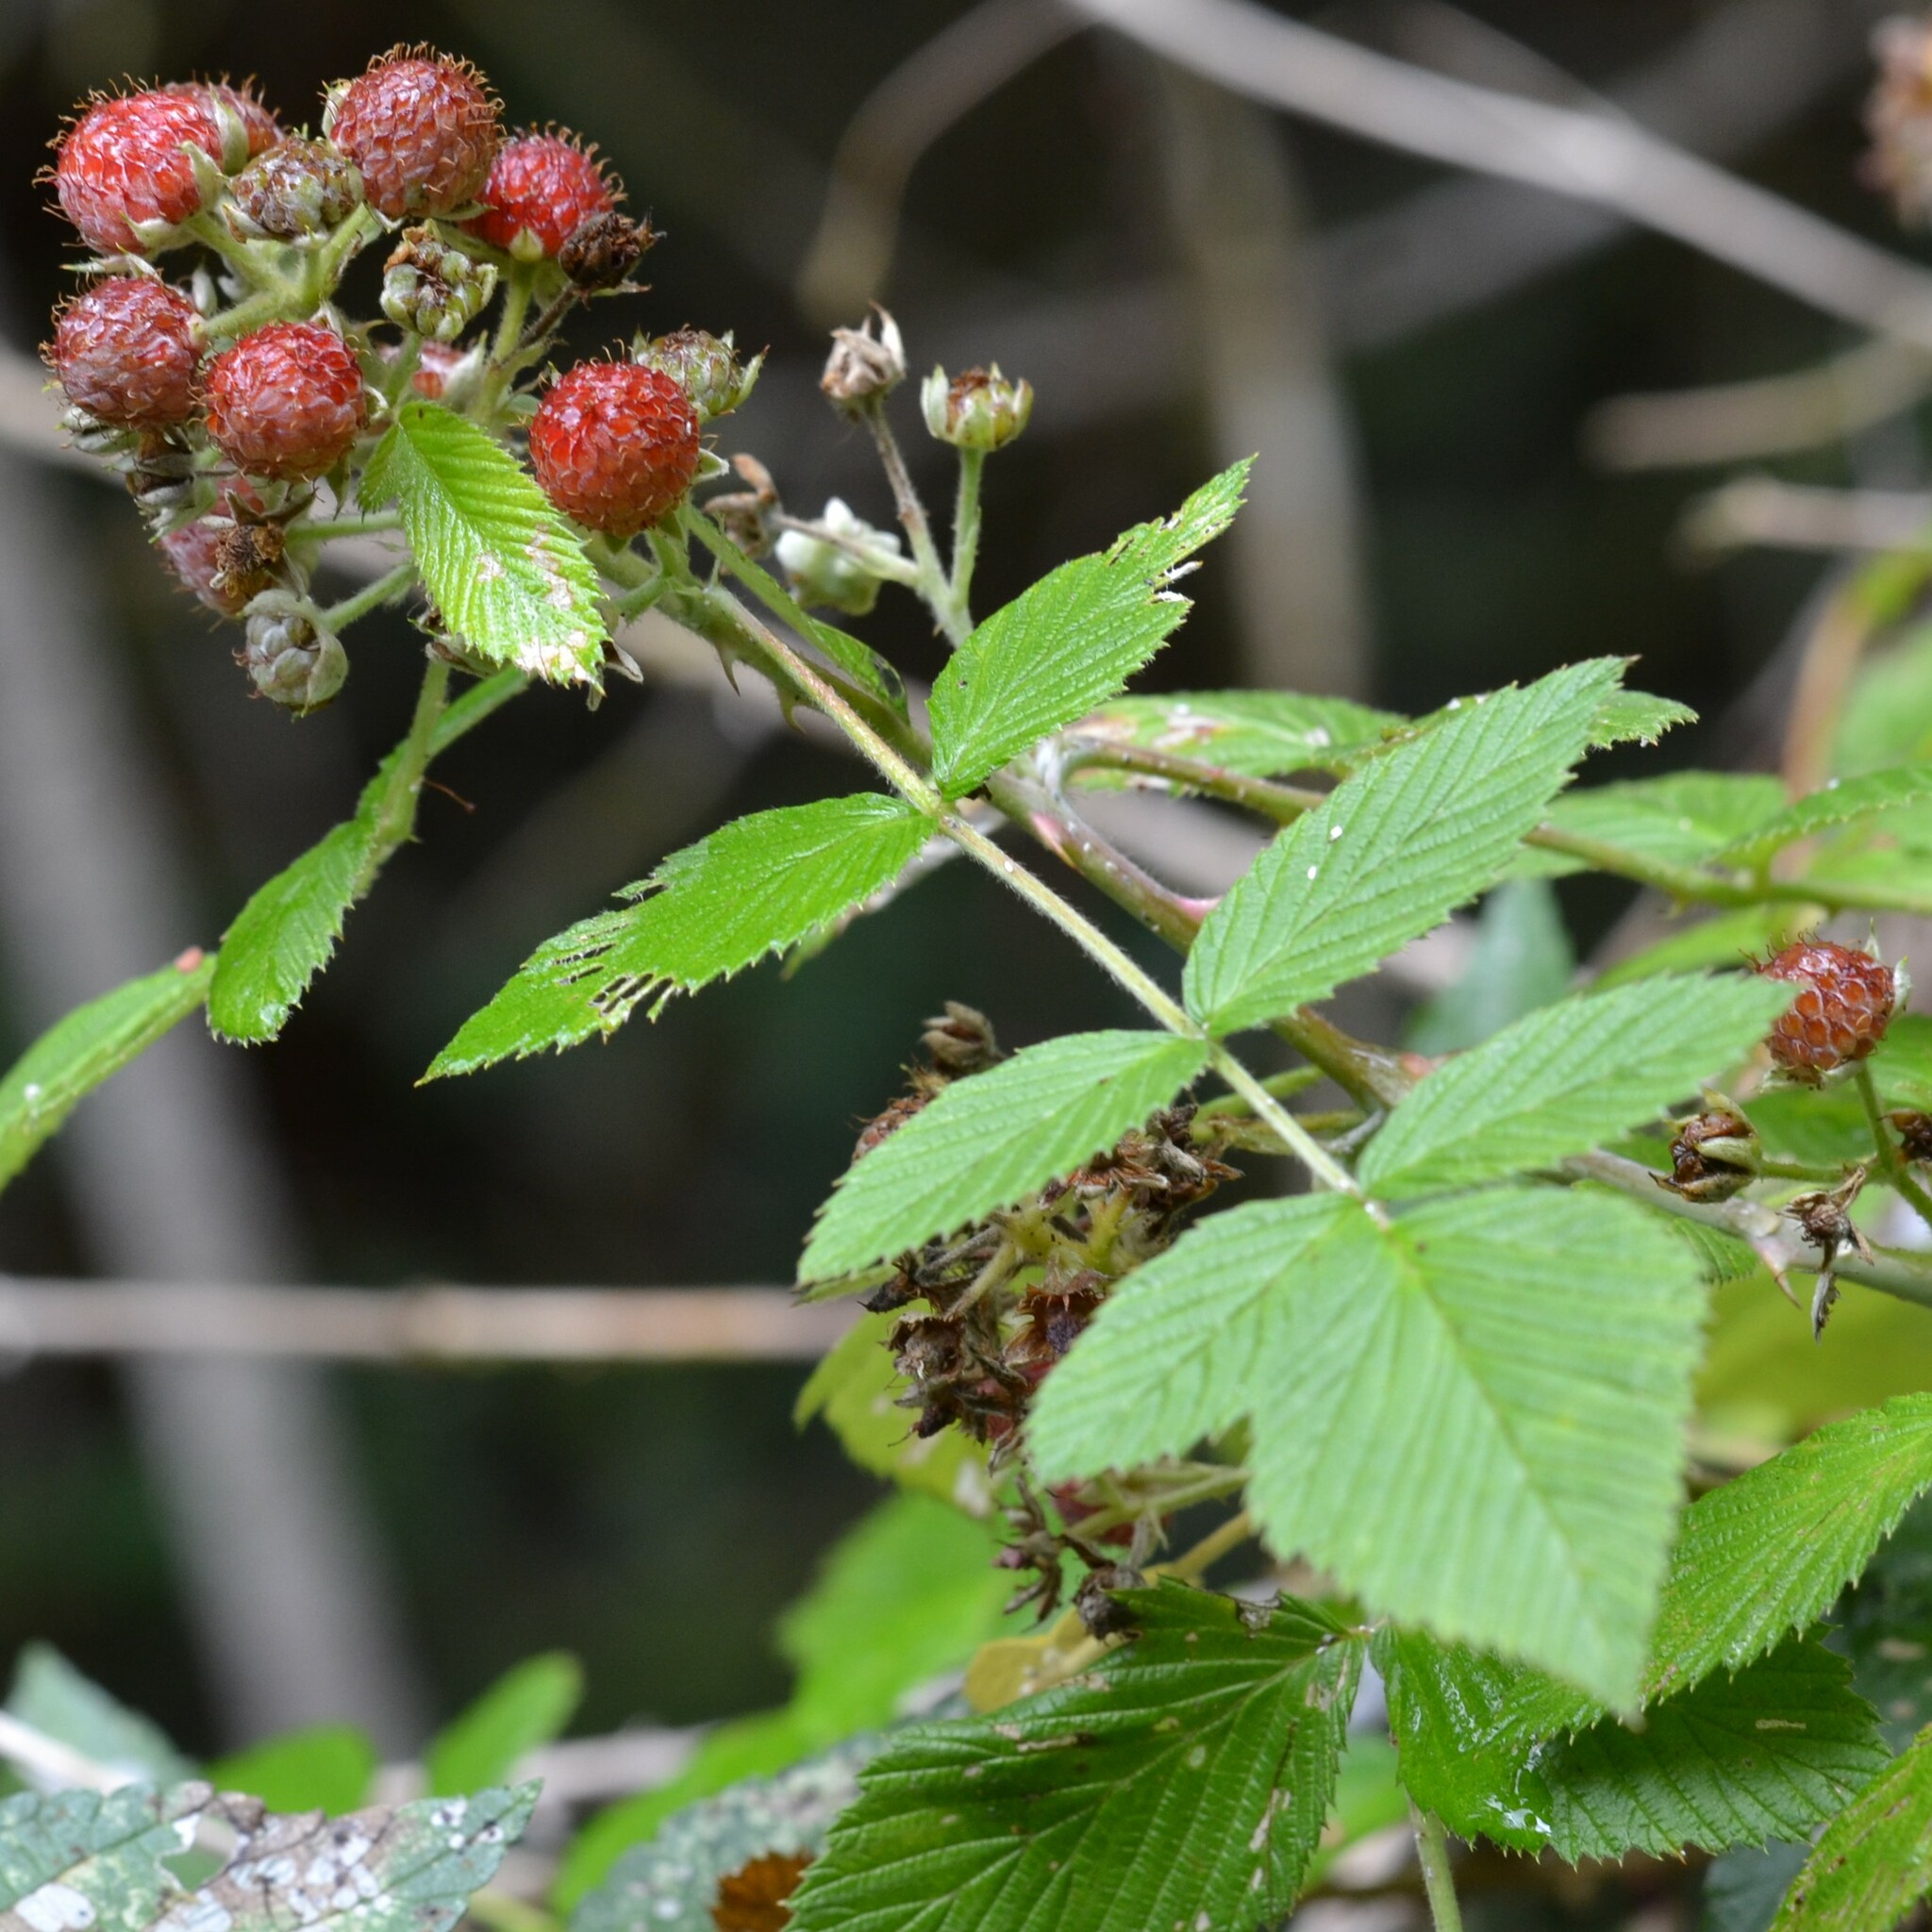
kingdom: Plantae
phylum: Tracheophyta
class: Magnoliopsida
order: Rosales
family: Rosaceae
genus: Rubus
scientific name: Rubus niveus
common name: Snowpeaks raspberry
